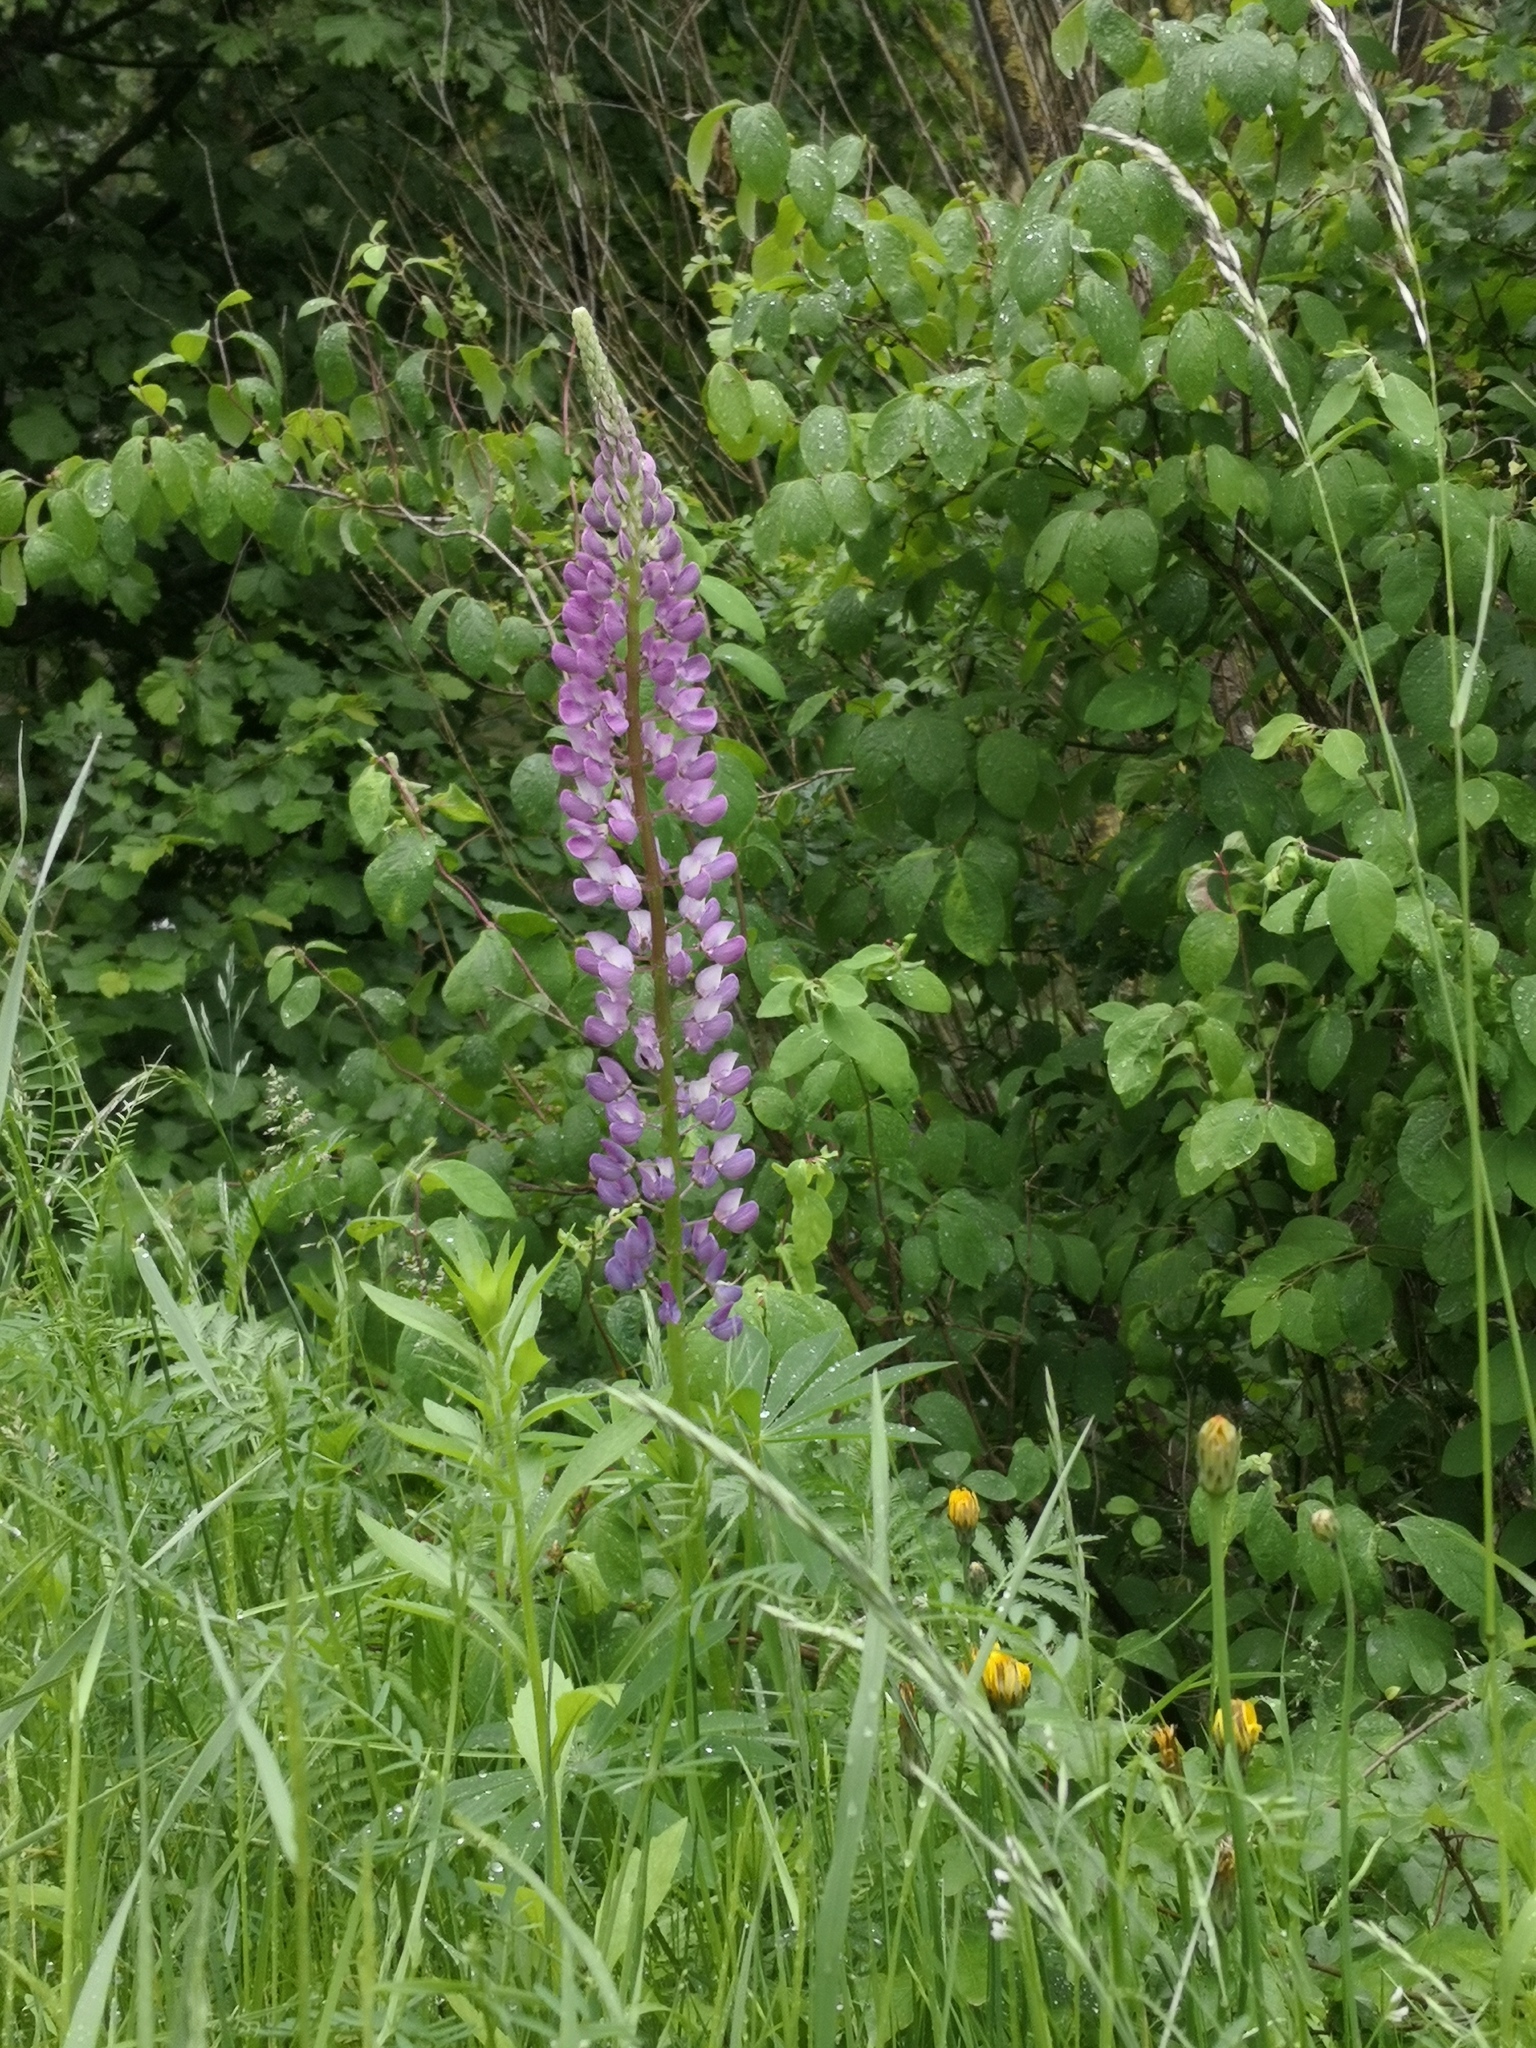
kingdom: Plantae
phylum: Tracheophyta
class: Magnoliopsida
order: Fabales
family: Fabaceae
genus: Lupinus
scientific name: Lupinus polyphyllus
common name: Garden lupin
